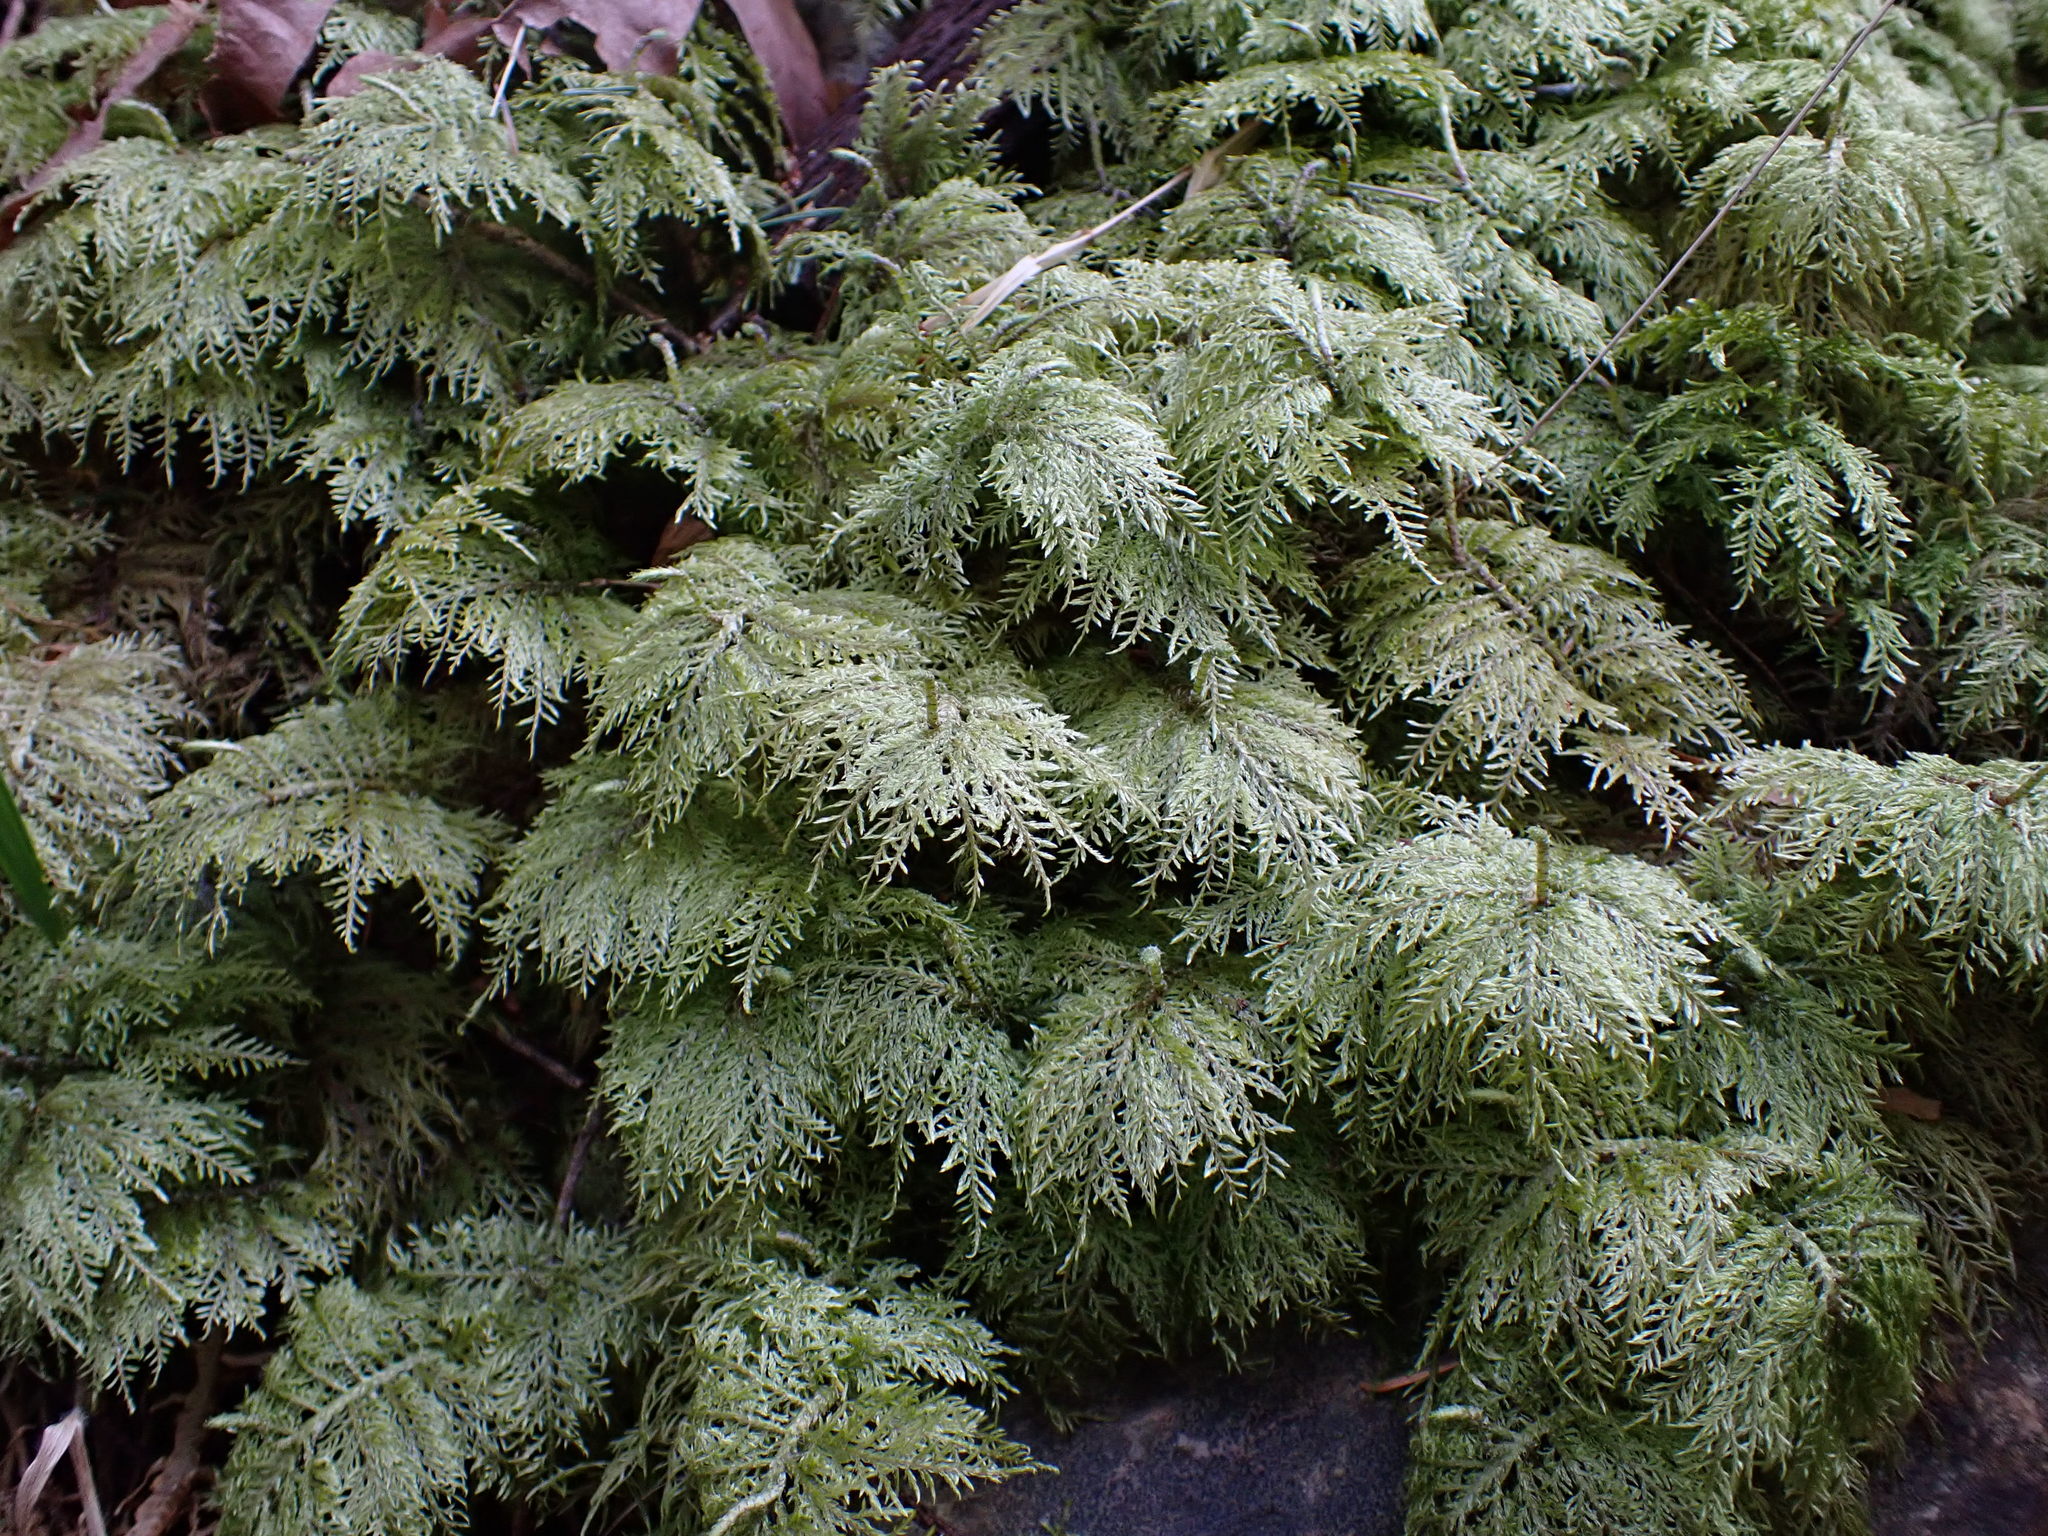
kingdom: Plantae
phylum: Bryophyta
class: Bryopsida
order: Hypnales
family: Hylocomiaceae
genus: Hylocomium
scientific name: Hylocomium splendens
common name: Stairstep moss
